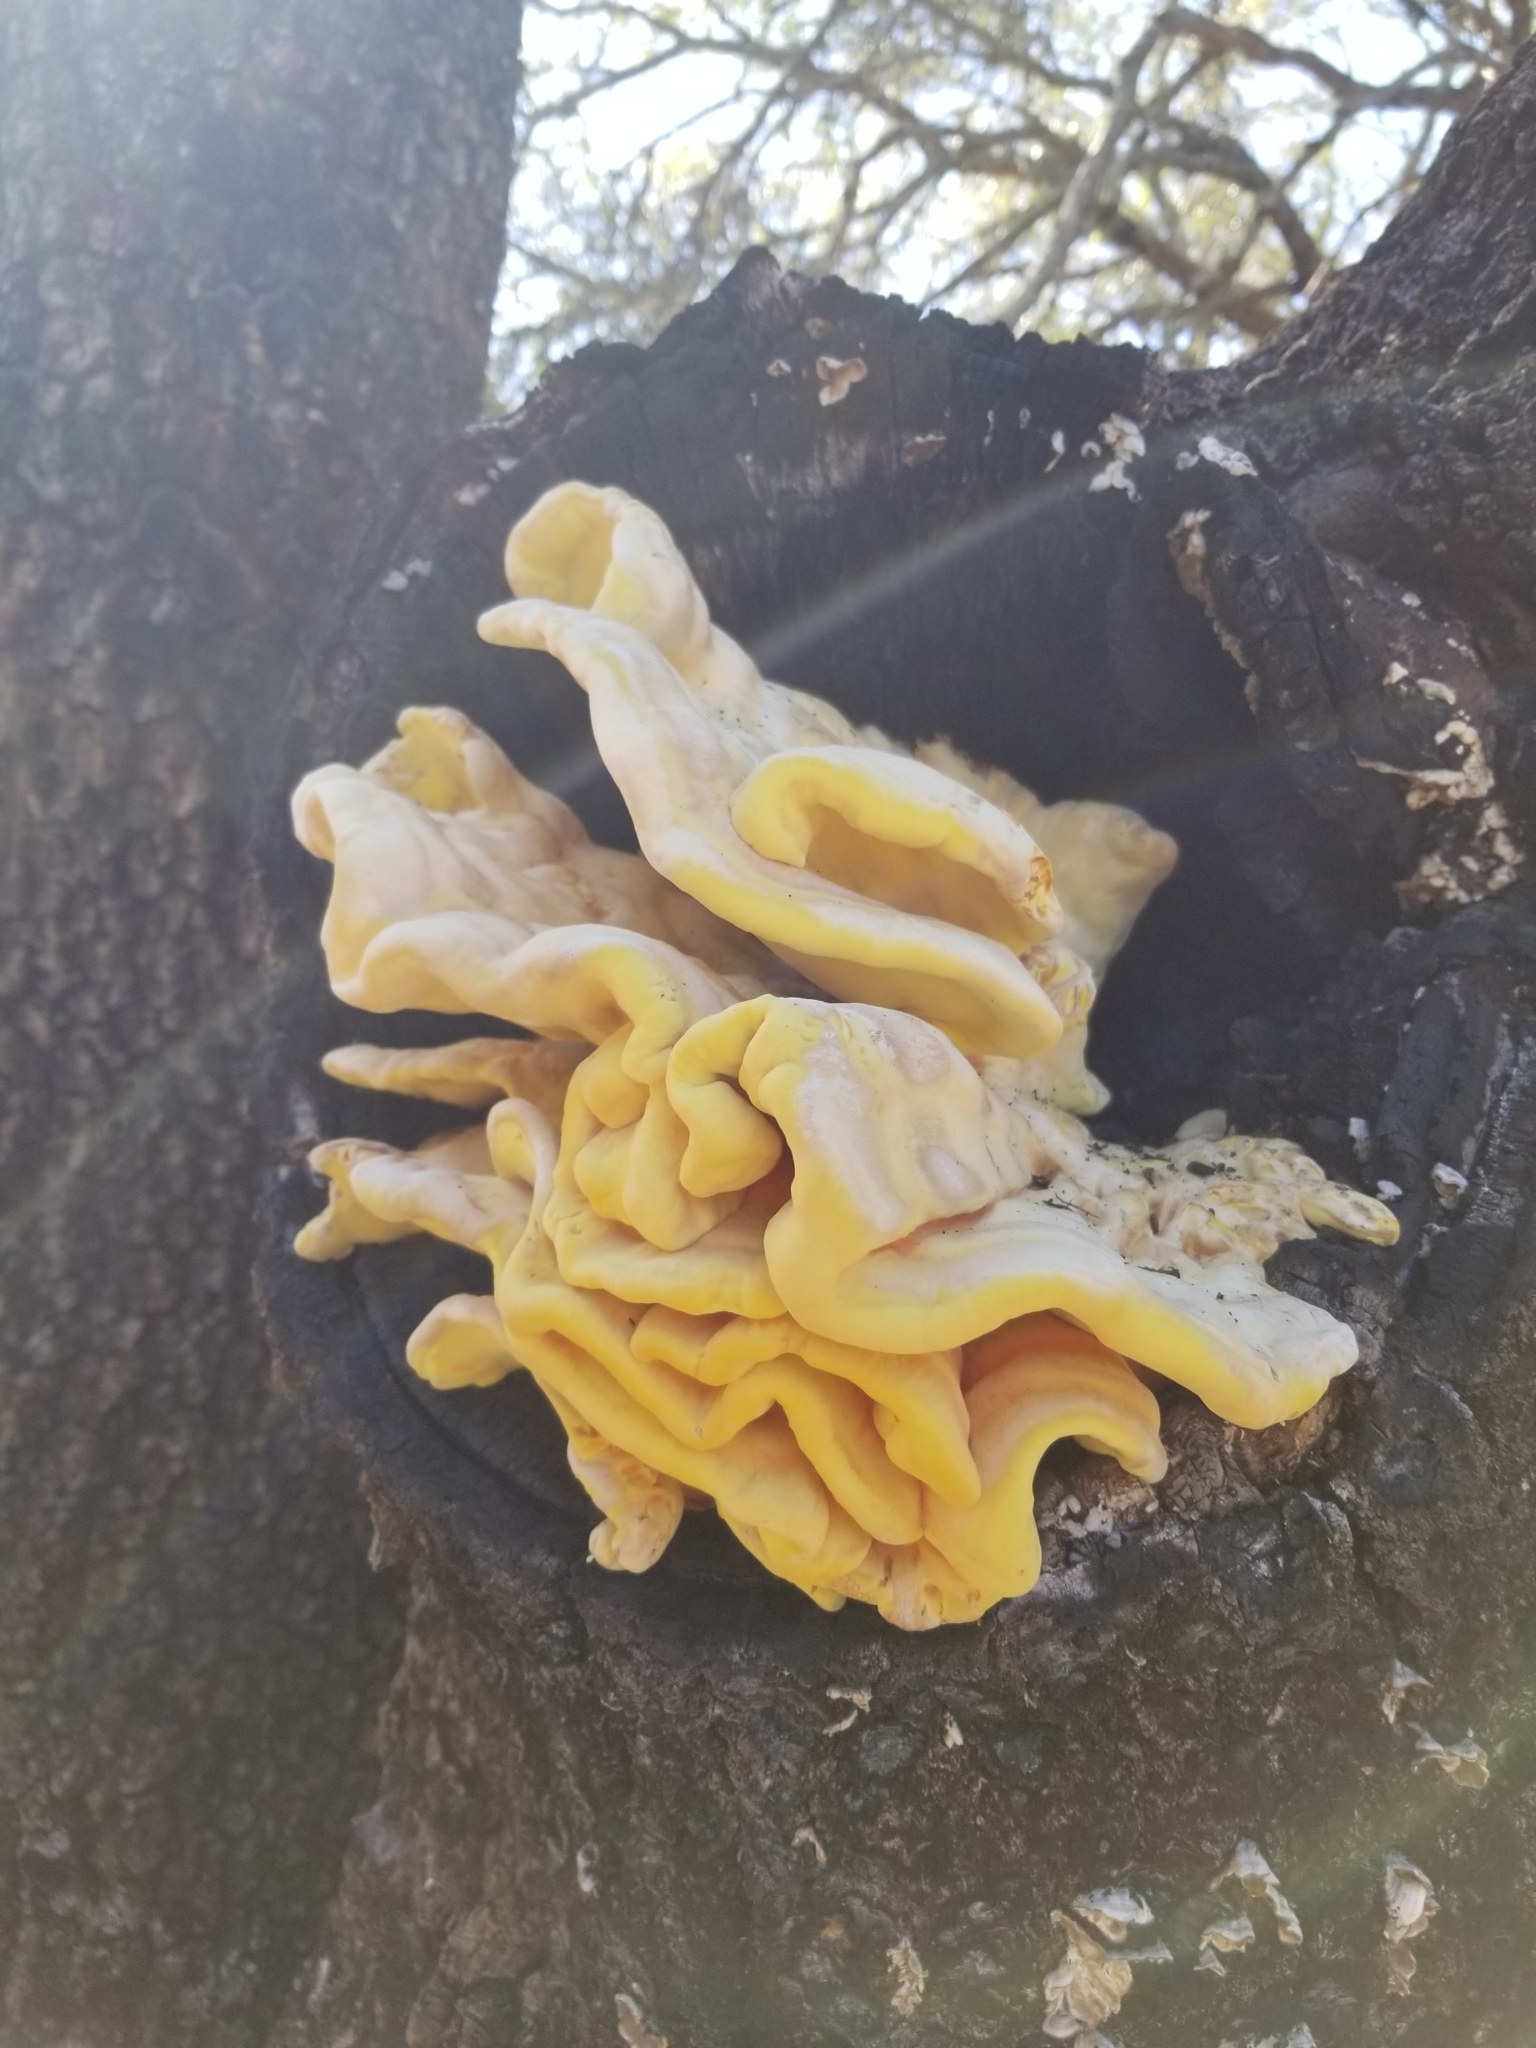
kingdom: Fungi
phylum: Basidiomycota
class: Agaricomycetes
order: Polyporales
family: Laetiporaceae
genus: Laetiporus
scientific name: Laetiporus gilbertsonii
